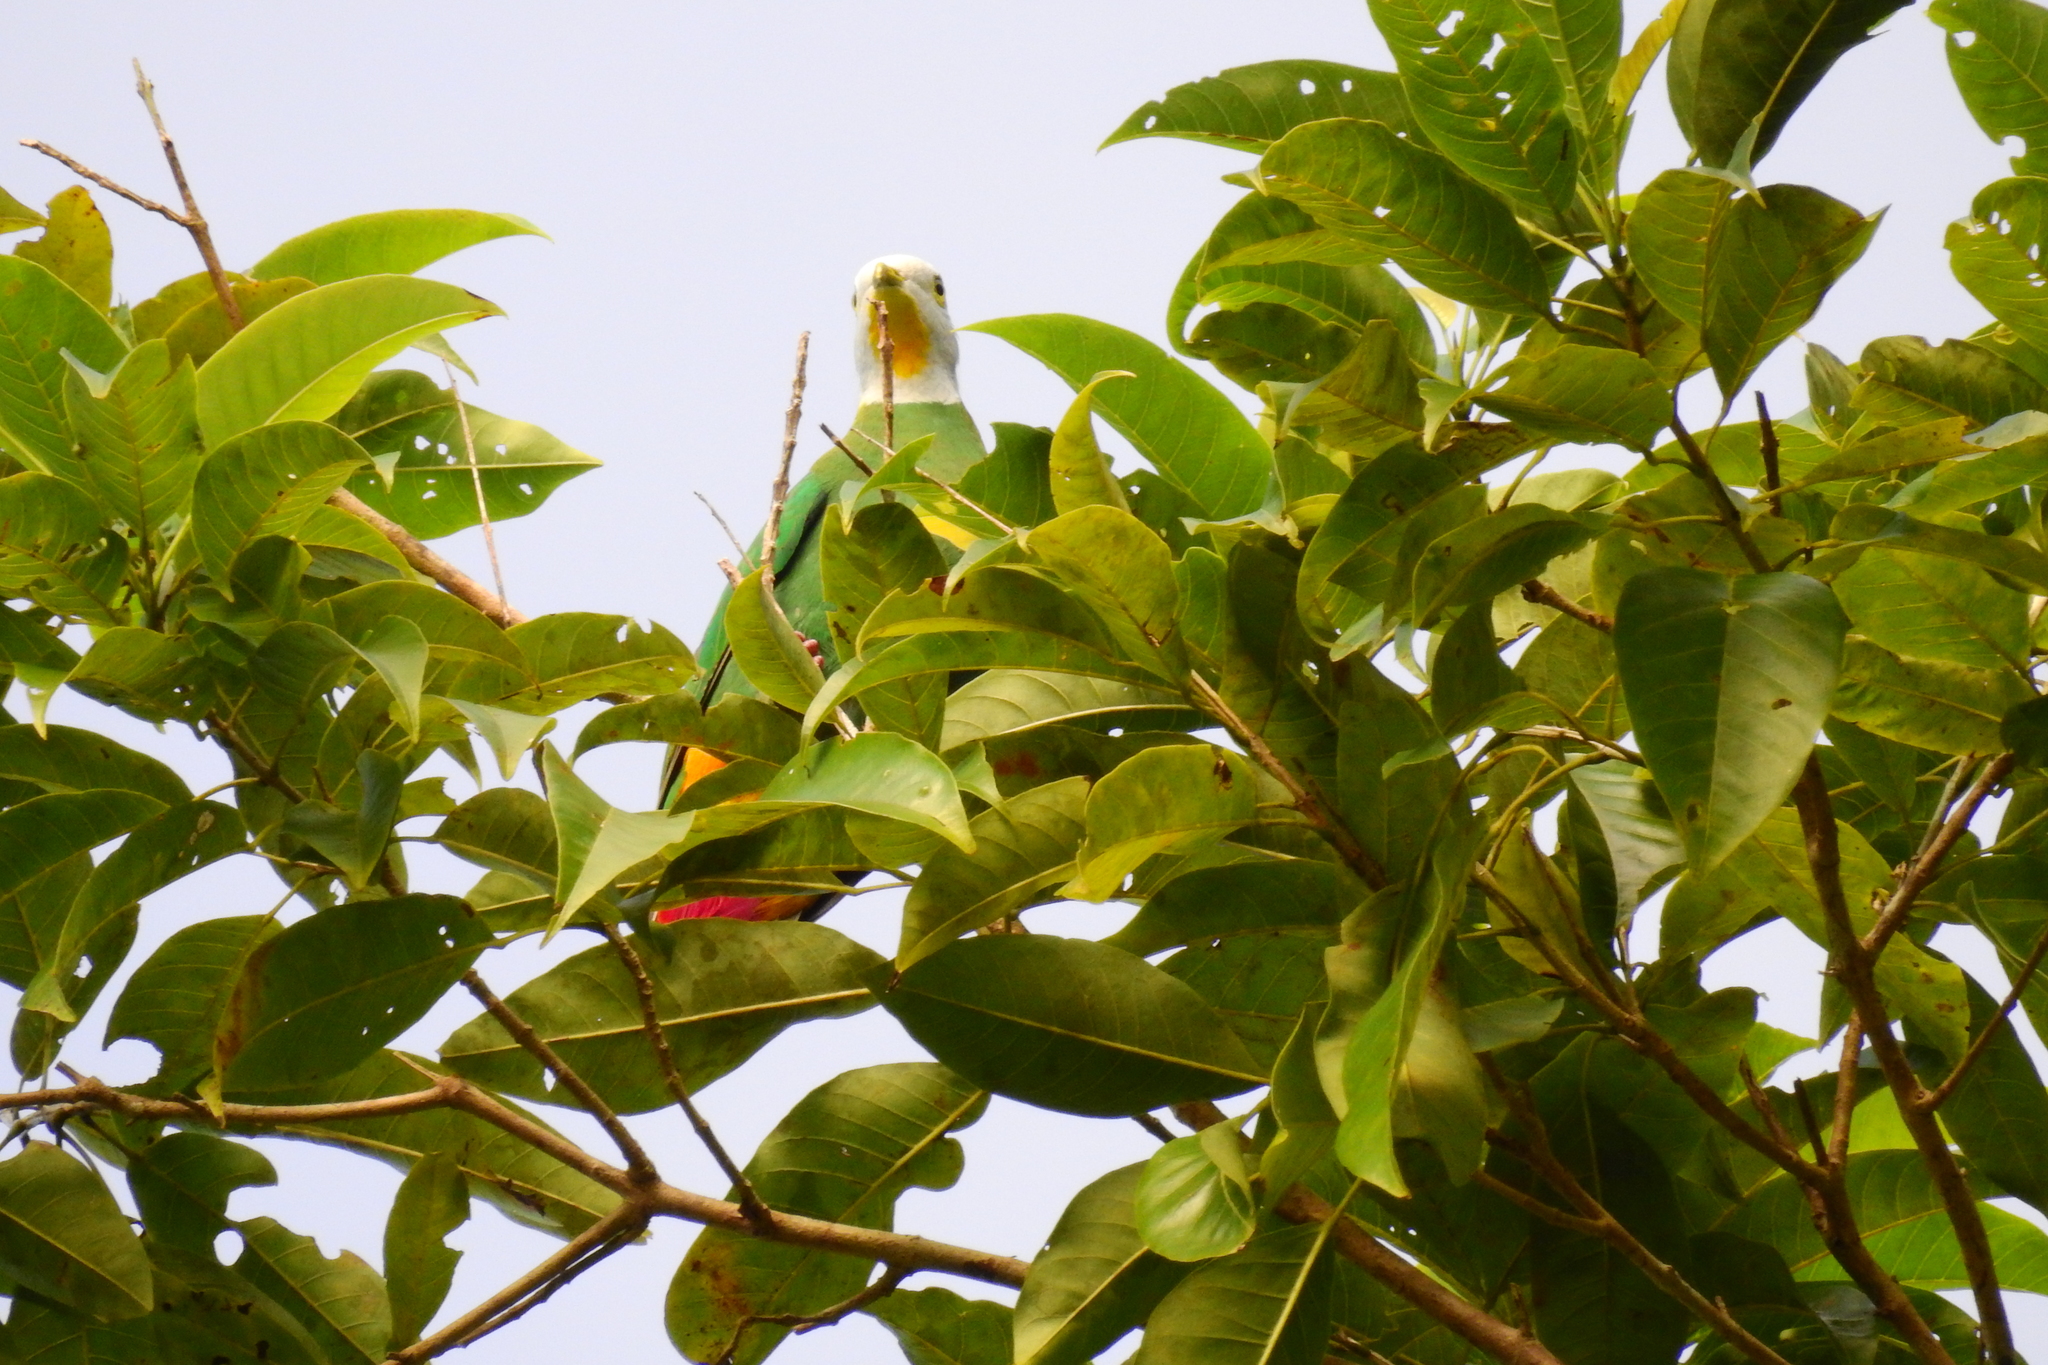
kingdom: Animalia
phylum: Chordata
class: Aves
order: Columbiformes
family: Columbidae
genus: Ptilinopus
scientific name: Ptilinopus melanospilus
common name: Black-naped fruit dove
